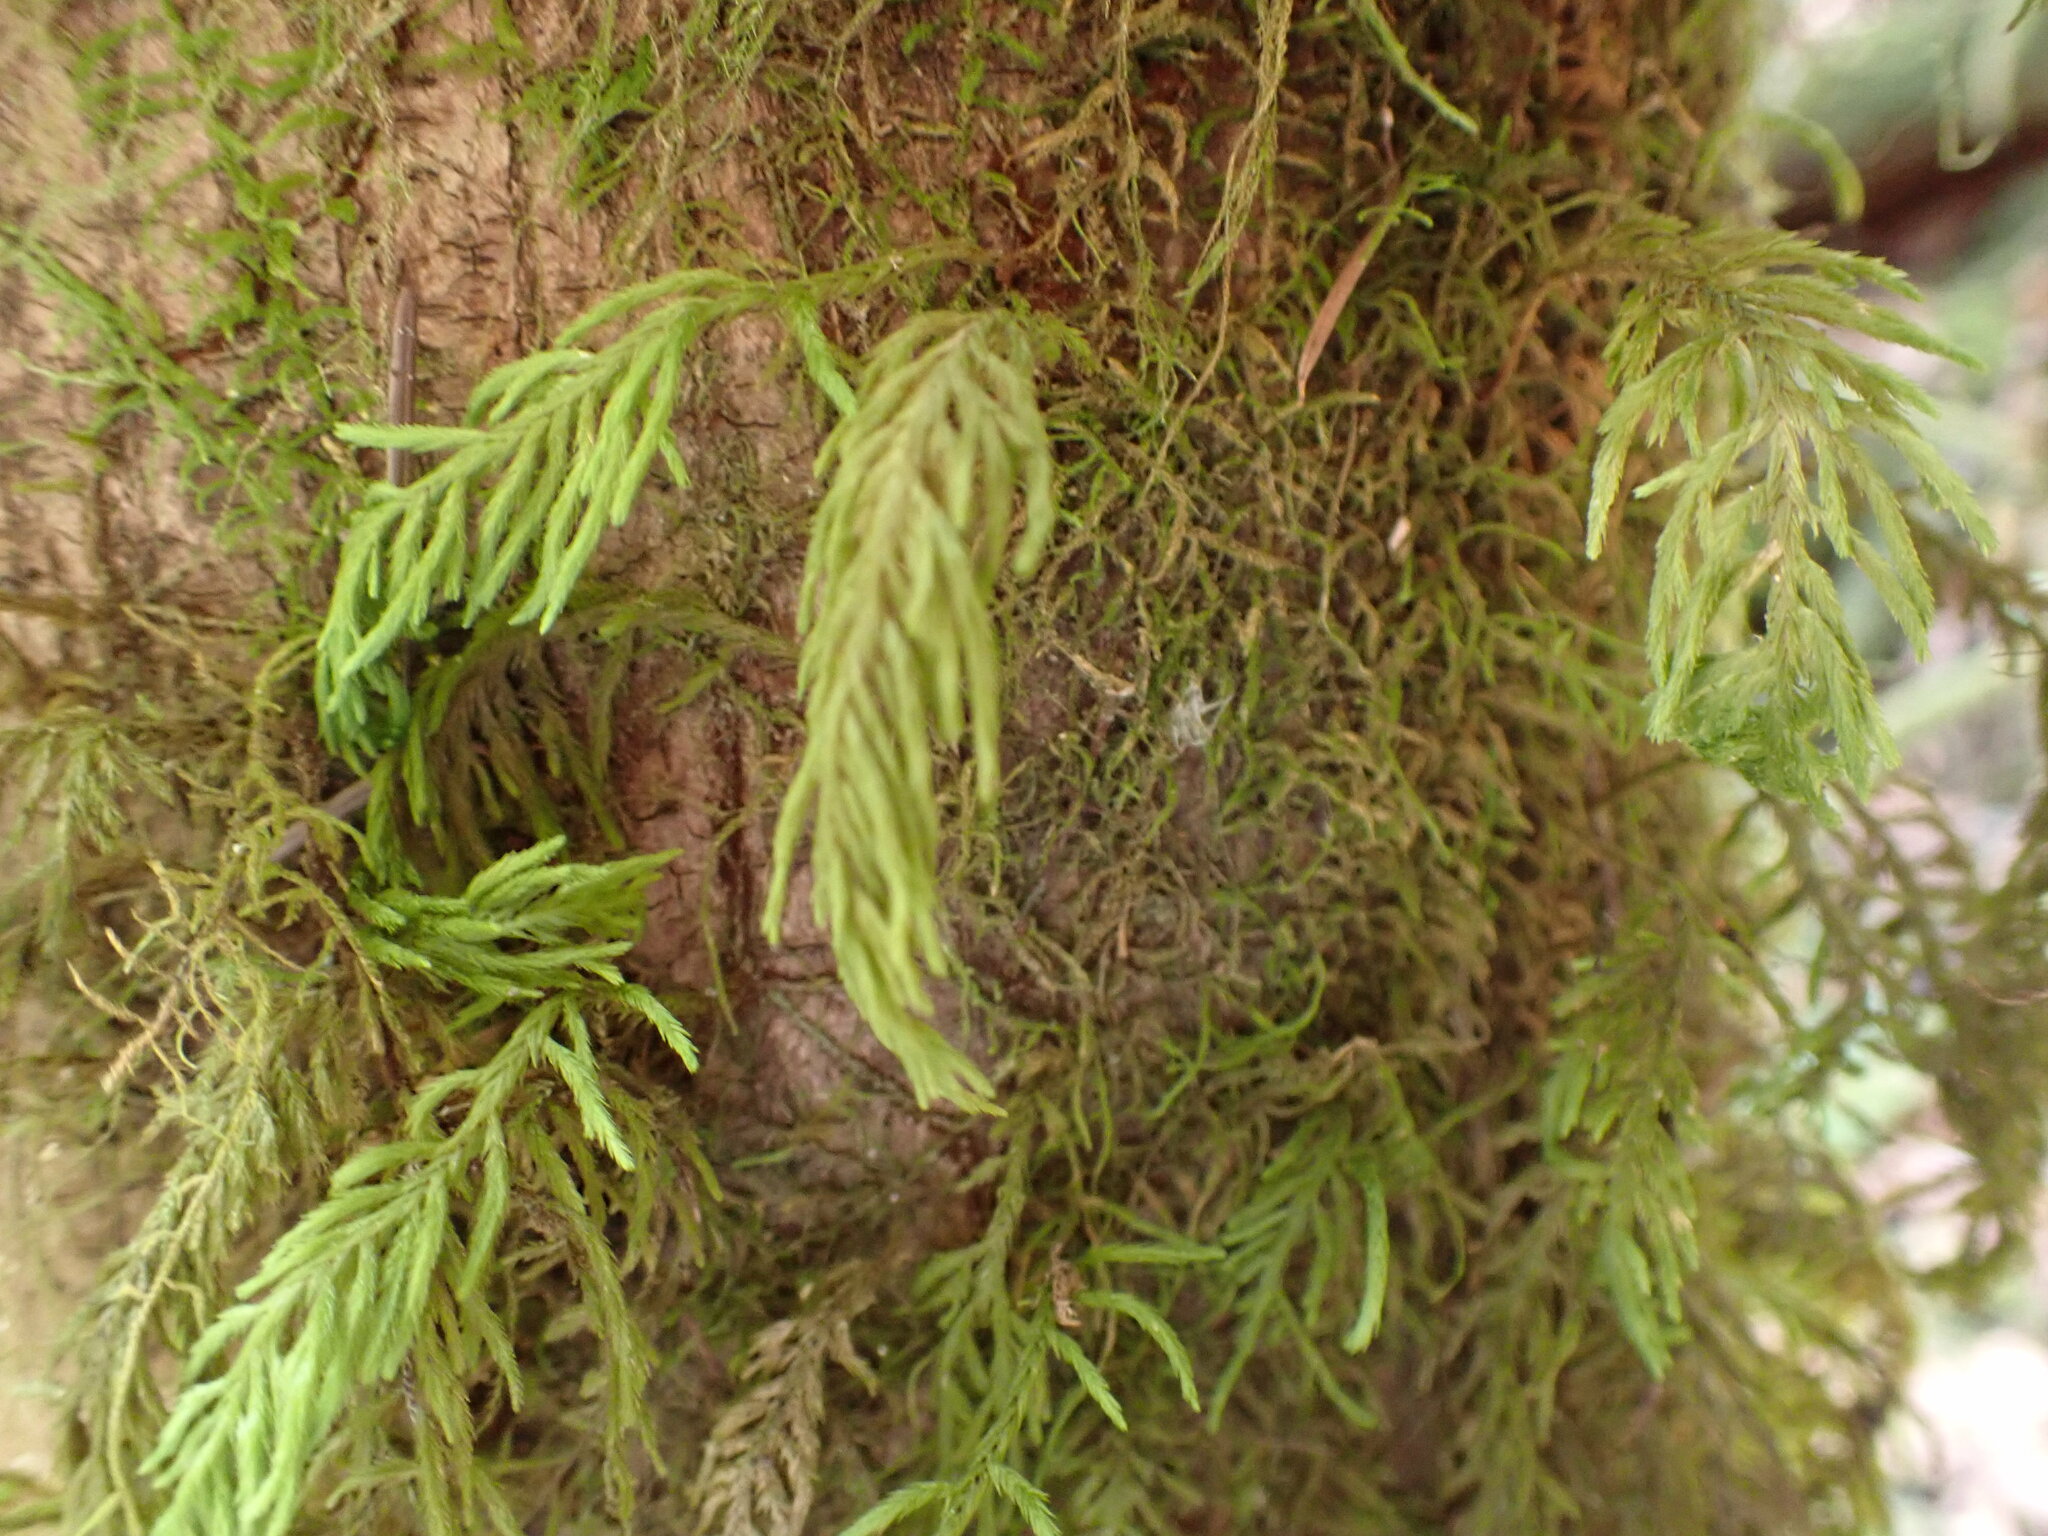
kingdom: Plantae
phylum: Bryophyta
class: Bryopsida
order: Hypnales
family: Cryphaeaceae
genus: Dendroalsia
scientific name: Dendroalsia abietina
